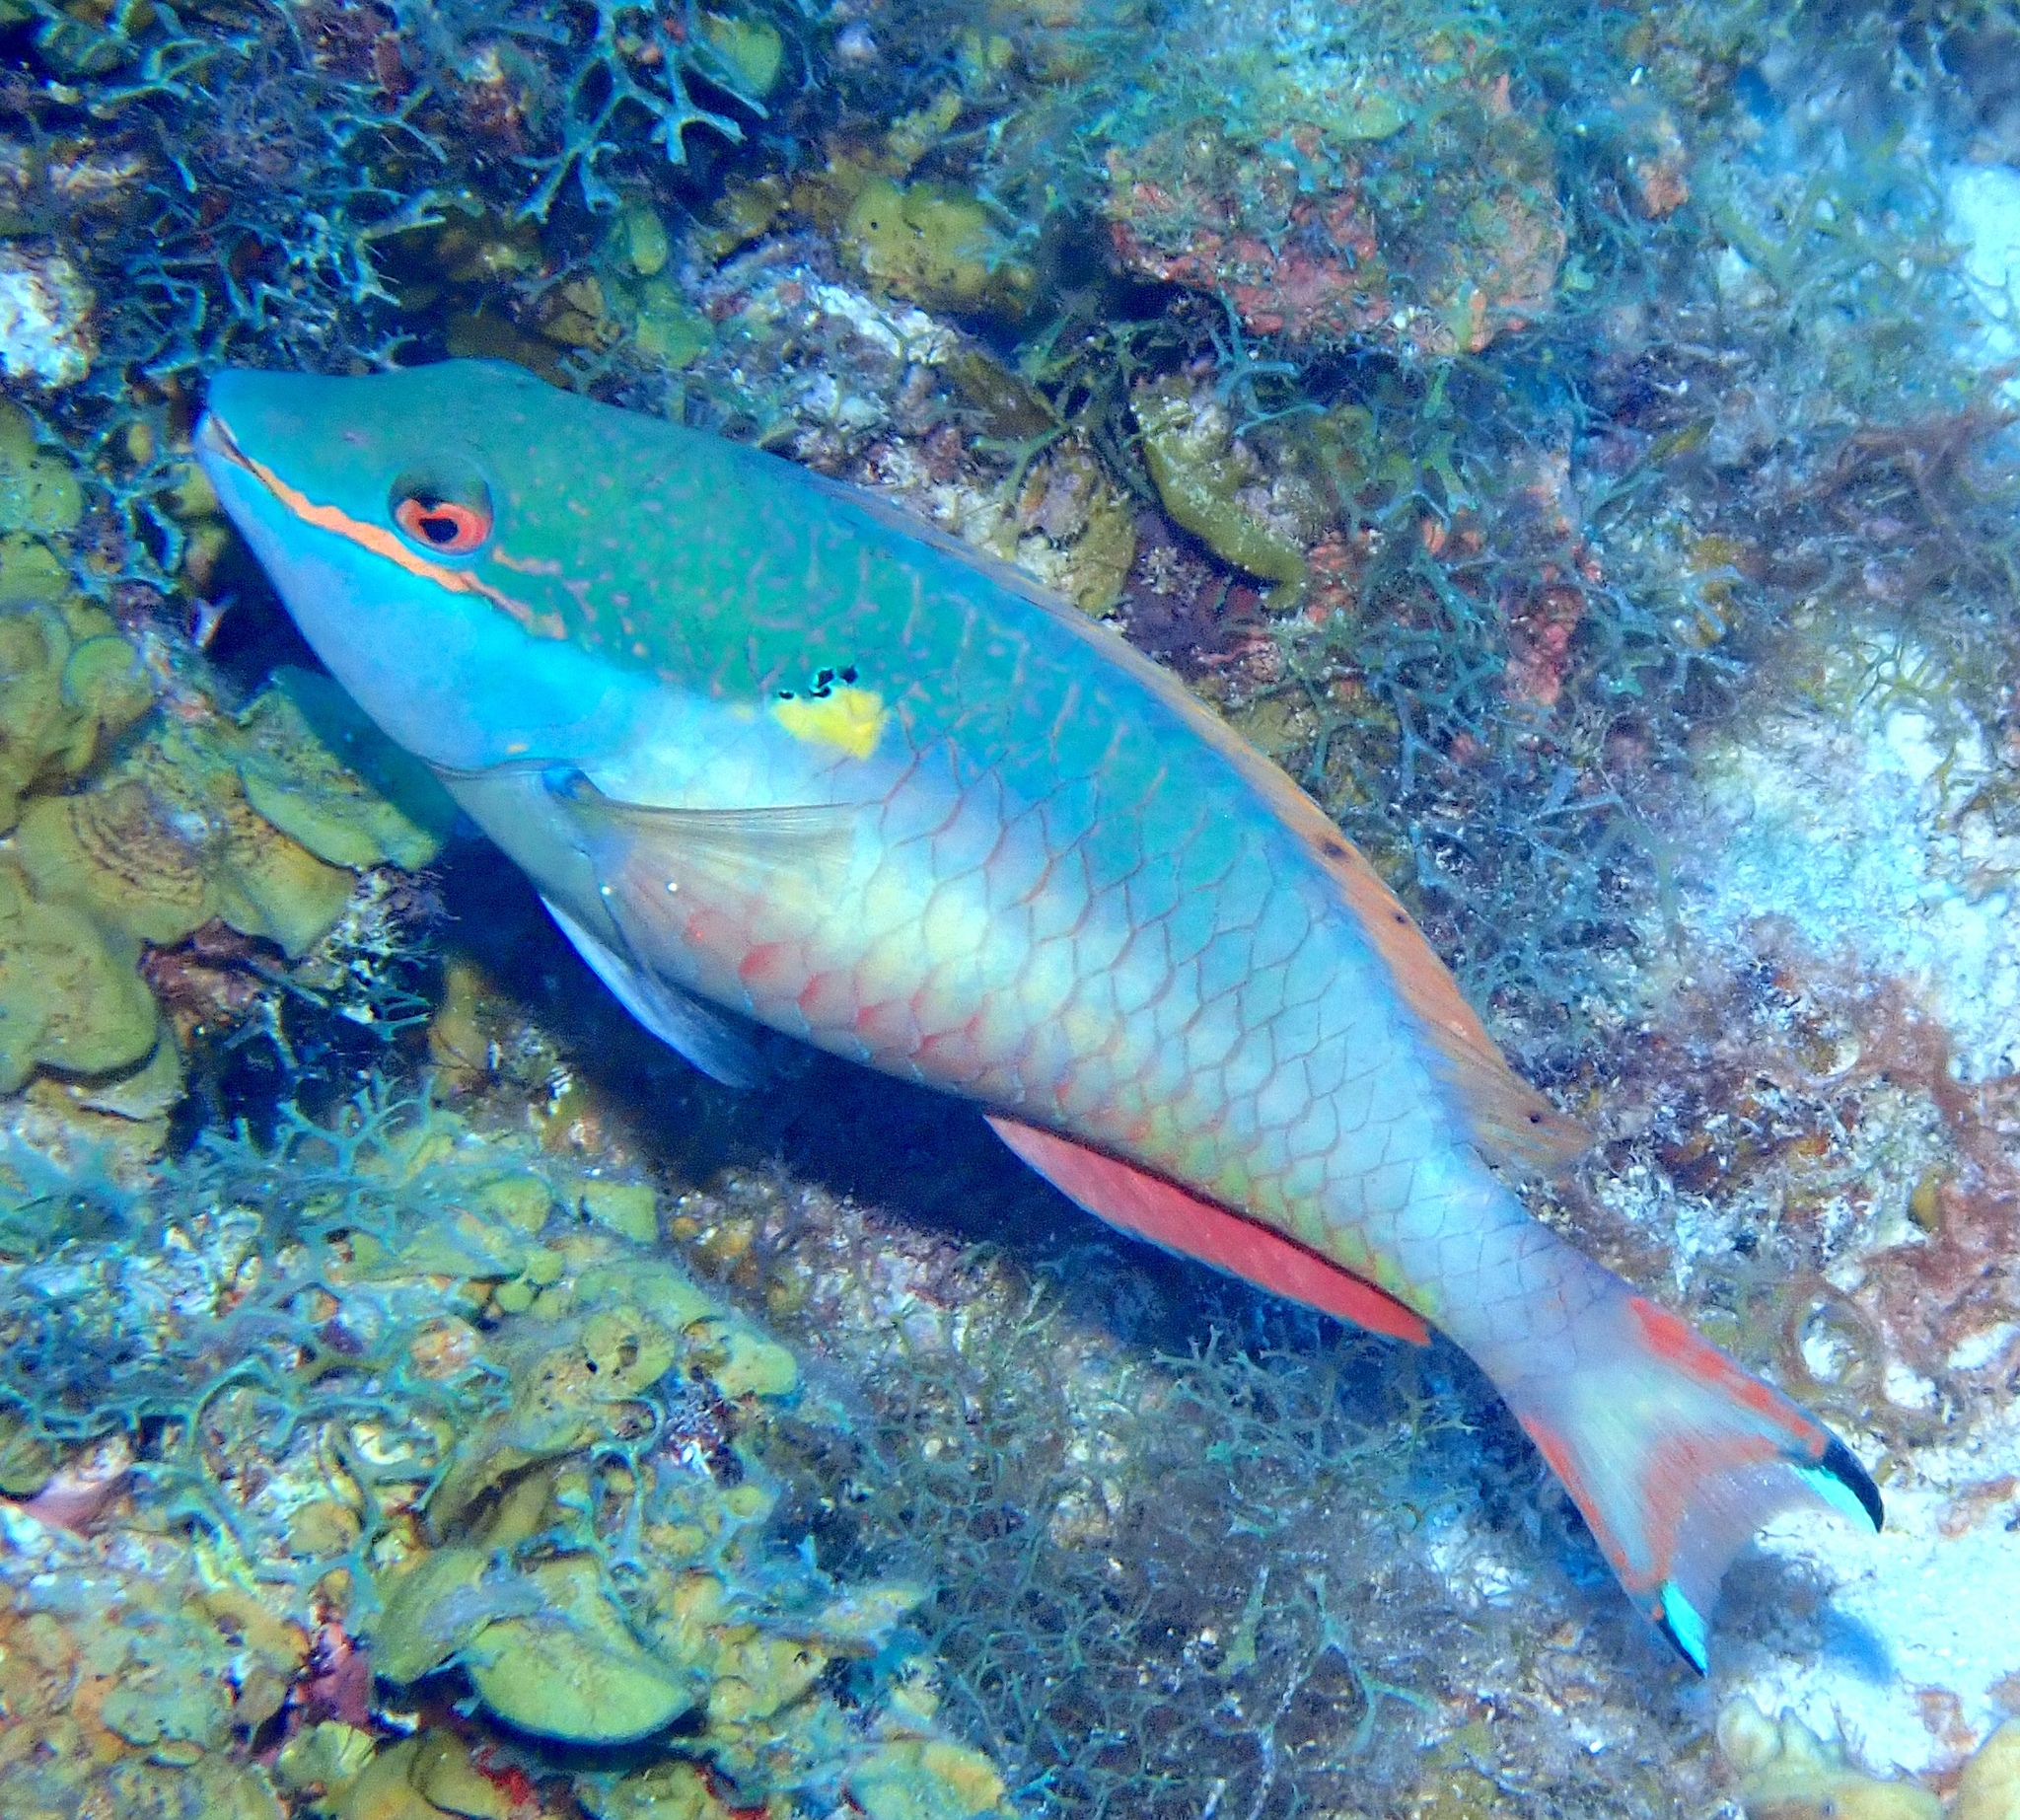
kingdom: Animalia
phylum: Chordata
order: Perciformes
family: Scaridae
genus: Sparisoma
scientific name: Sparisoma aurofrenatum
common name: Redband parrotfish
